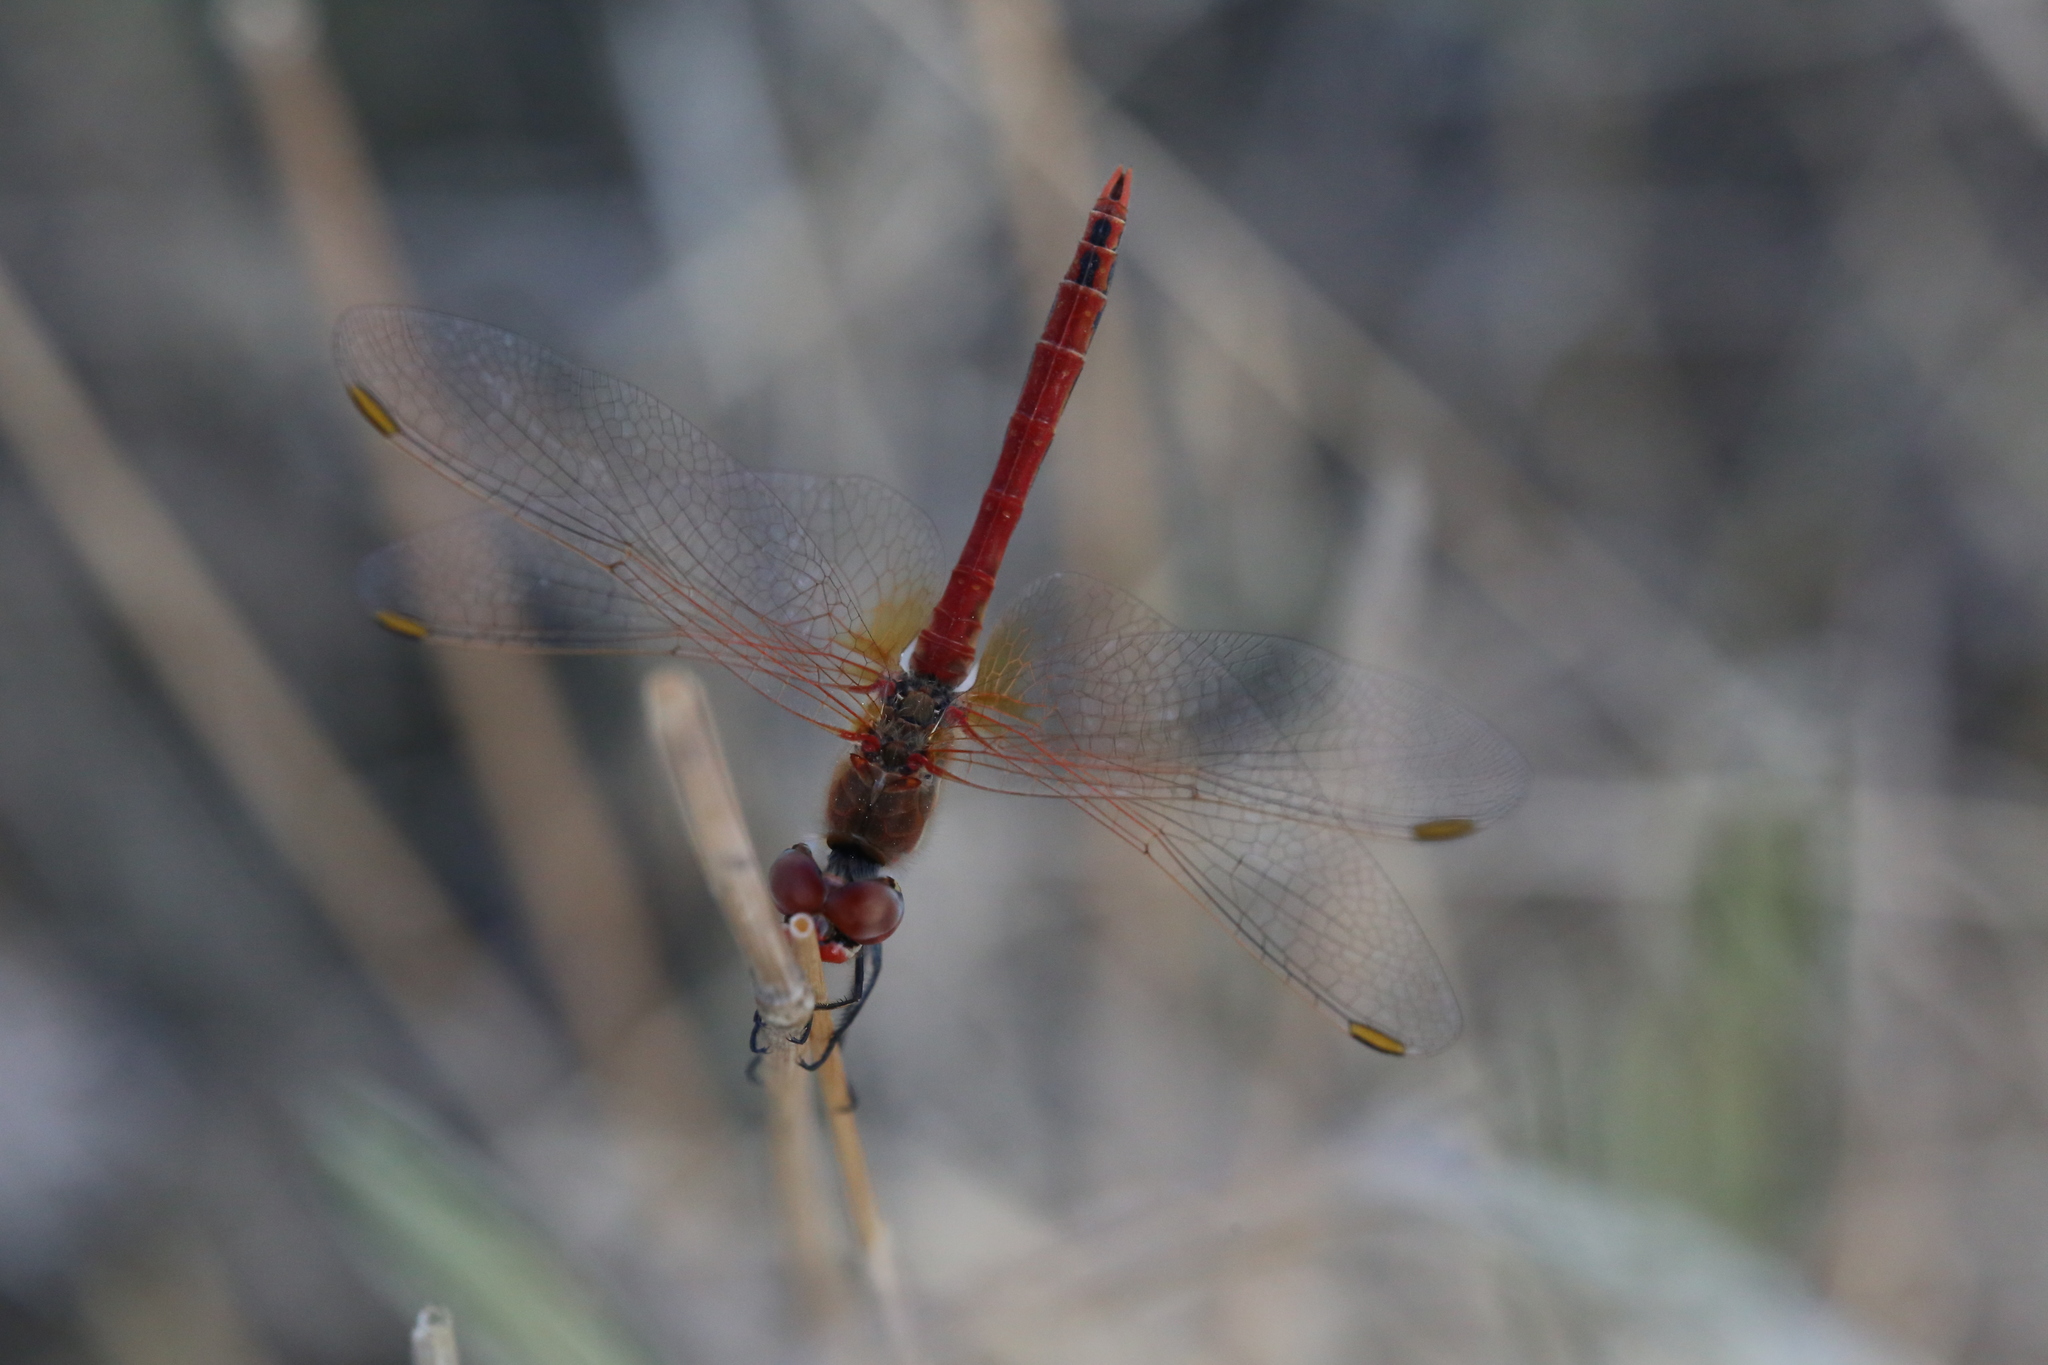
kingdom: Animalia
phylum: Arthropoda
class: Insecta
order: Odonata
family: Libellulidae
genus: Sympetrum
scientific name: Sympetrum fonscolombii
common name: Red-veined darter
